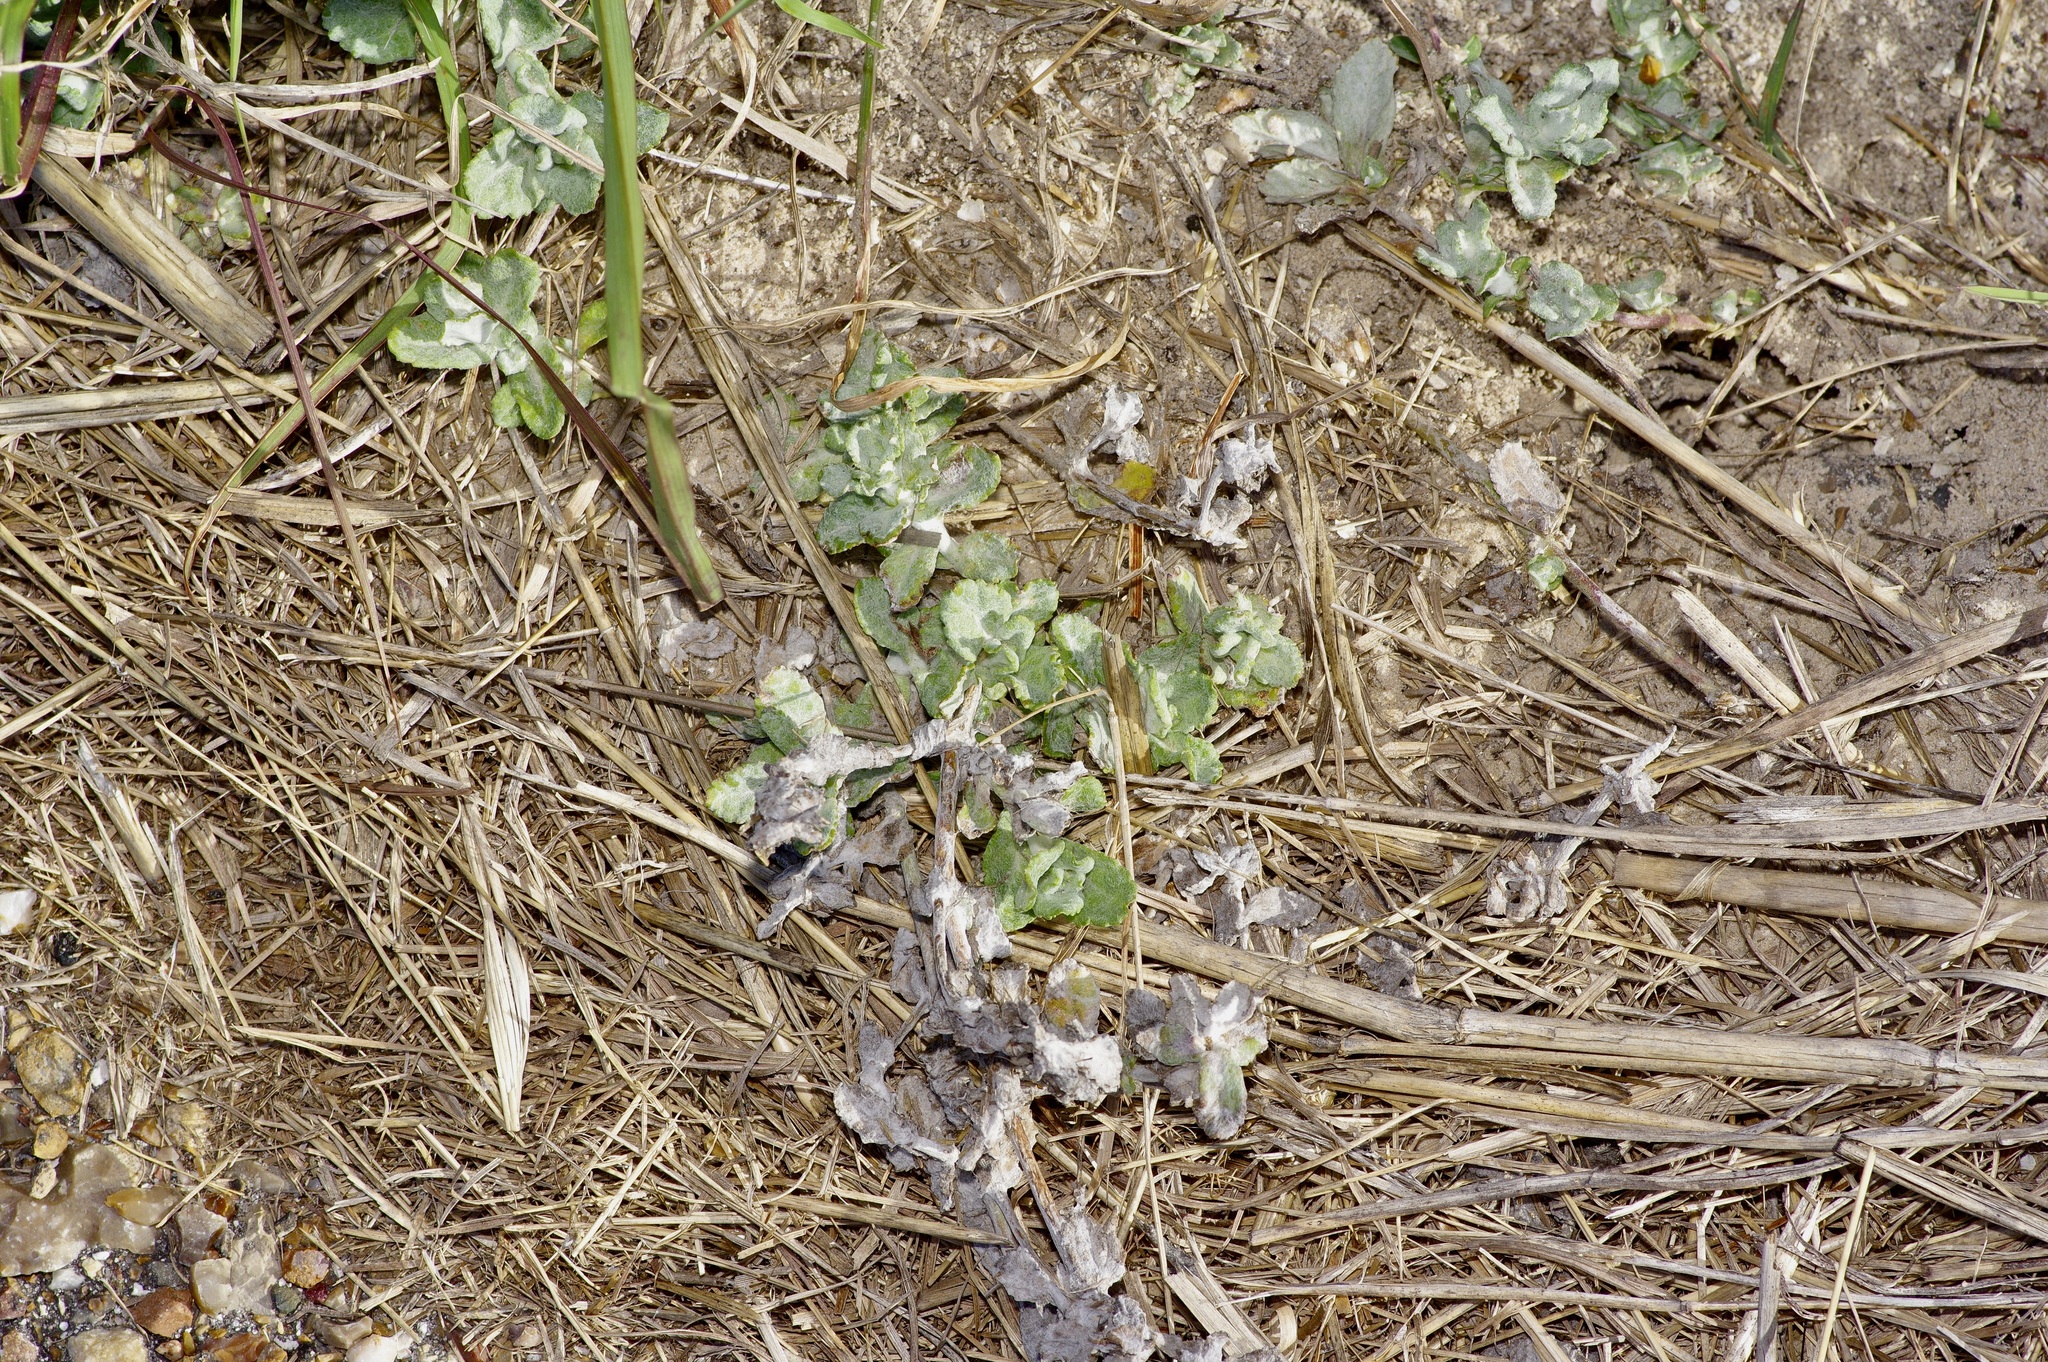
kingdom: Plantae
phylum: Tracheophyta
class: Magnoliopsida
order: Lamiales
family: Plantaginaceae
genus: Stemodia
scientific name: Stemodia lanata
